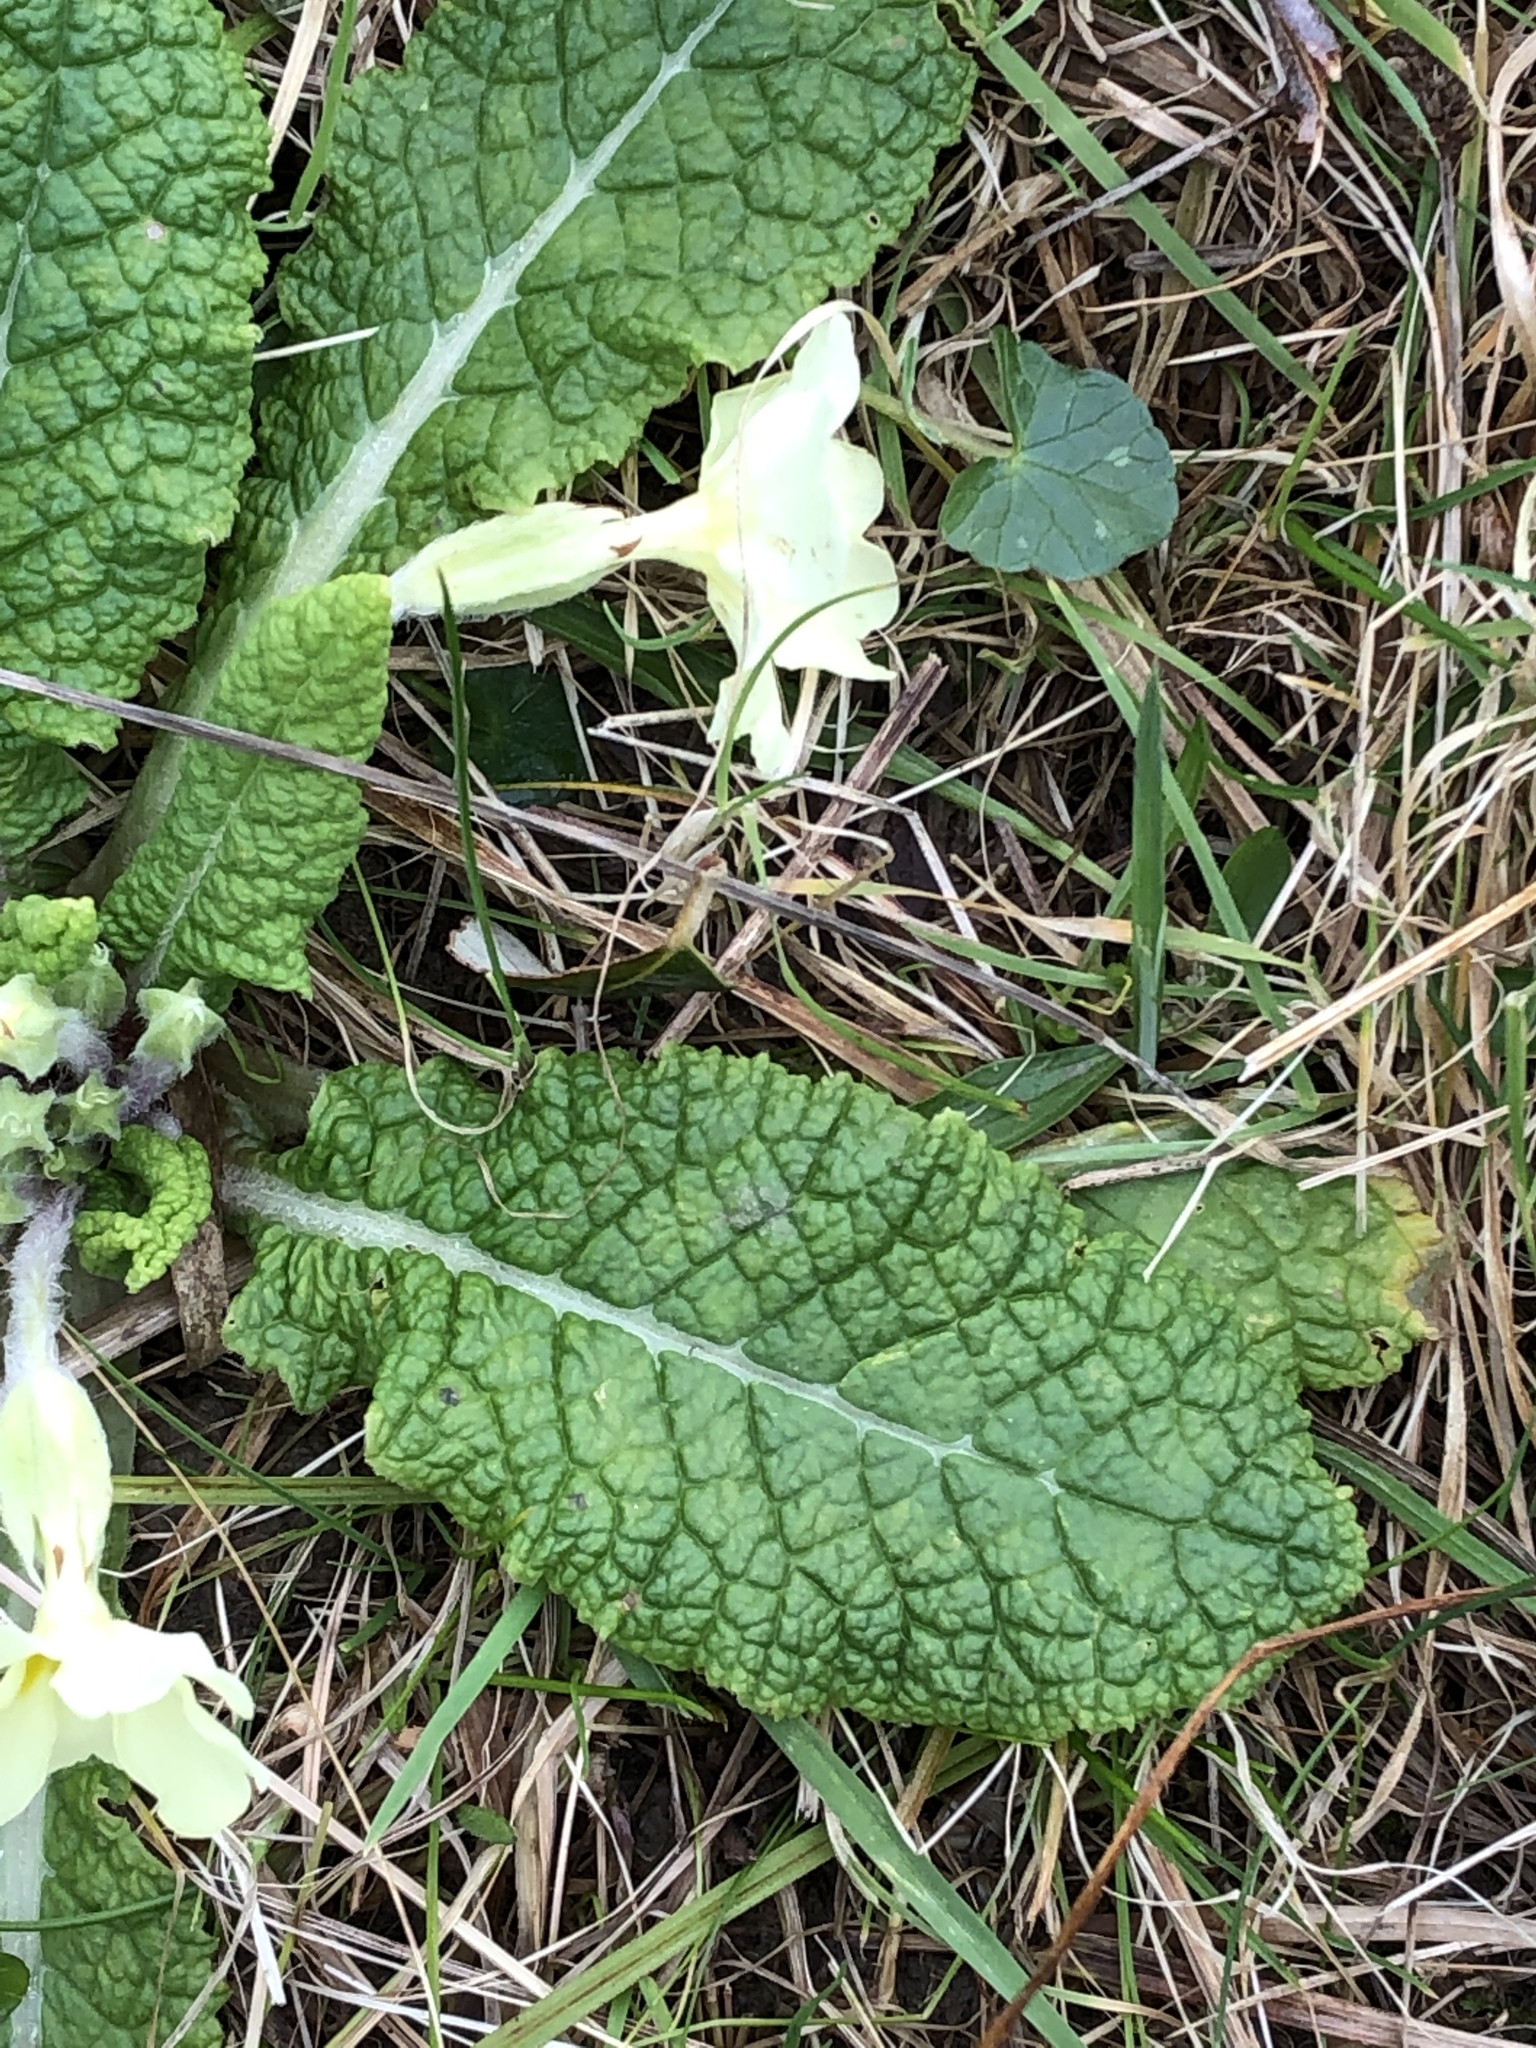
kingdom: Plantae
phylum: Tracheophyta
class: Magnoliopsida
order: Ericales
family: Primulaceae
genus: Primula
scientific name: Primula vulgaris
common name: Primrose
